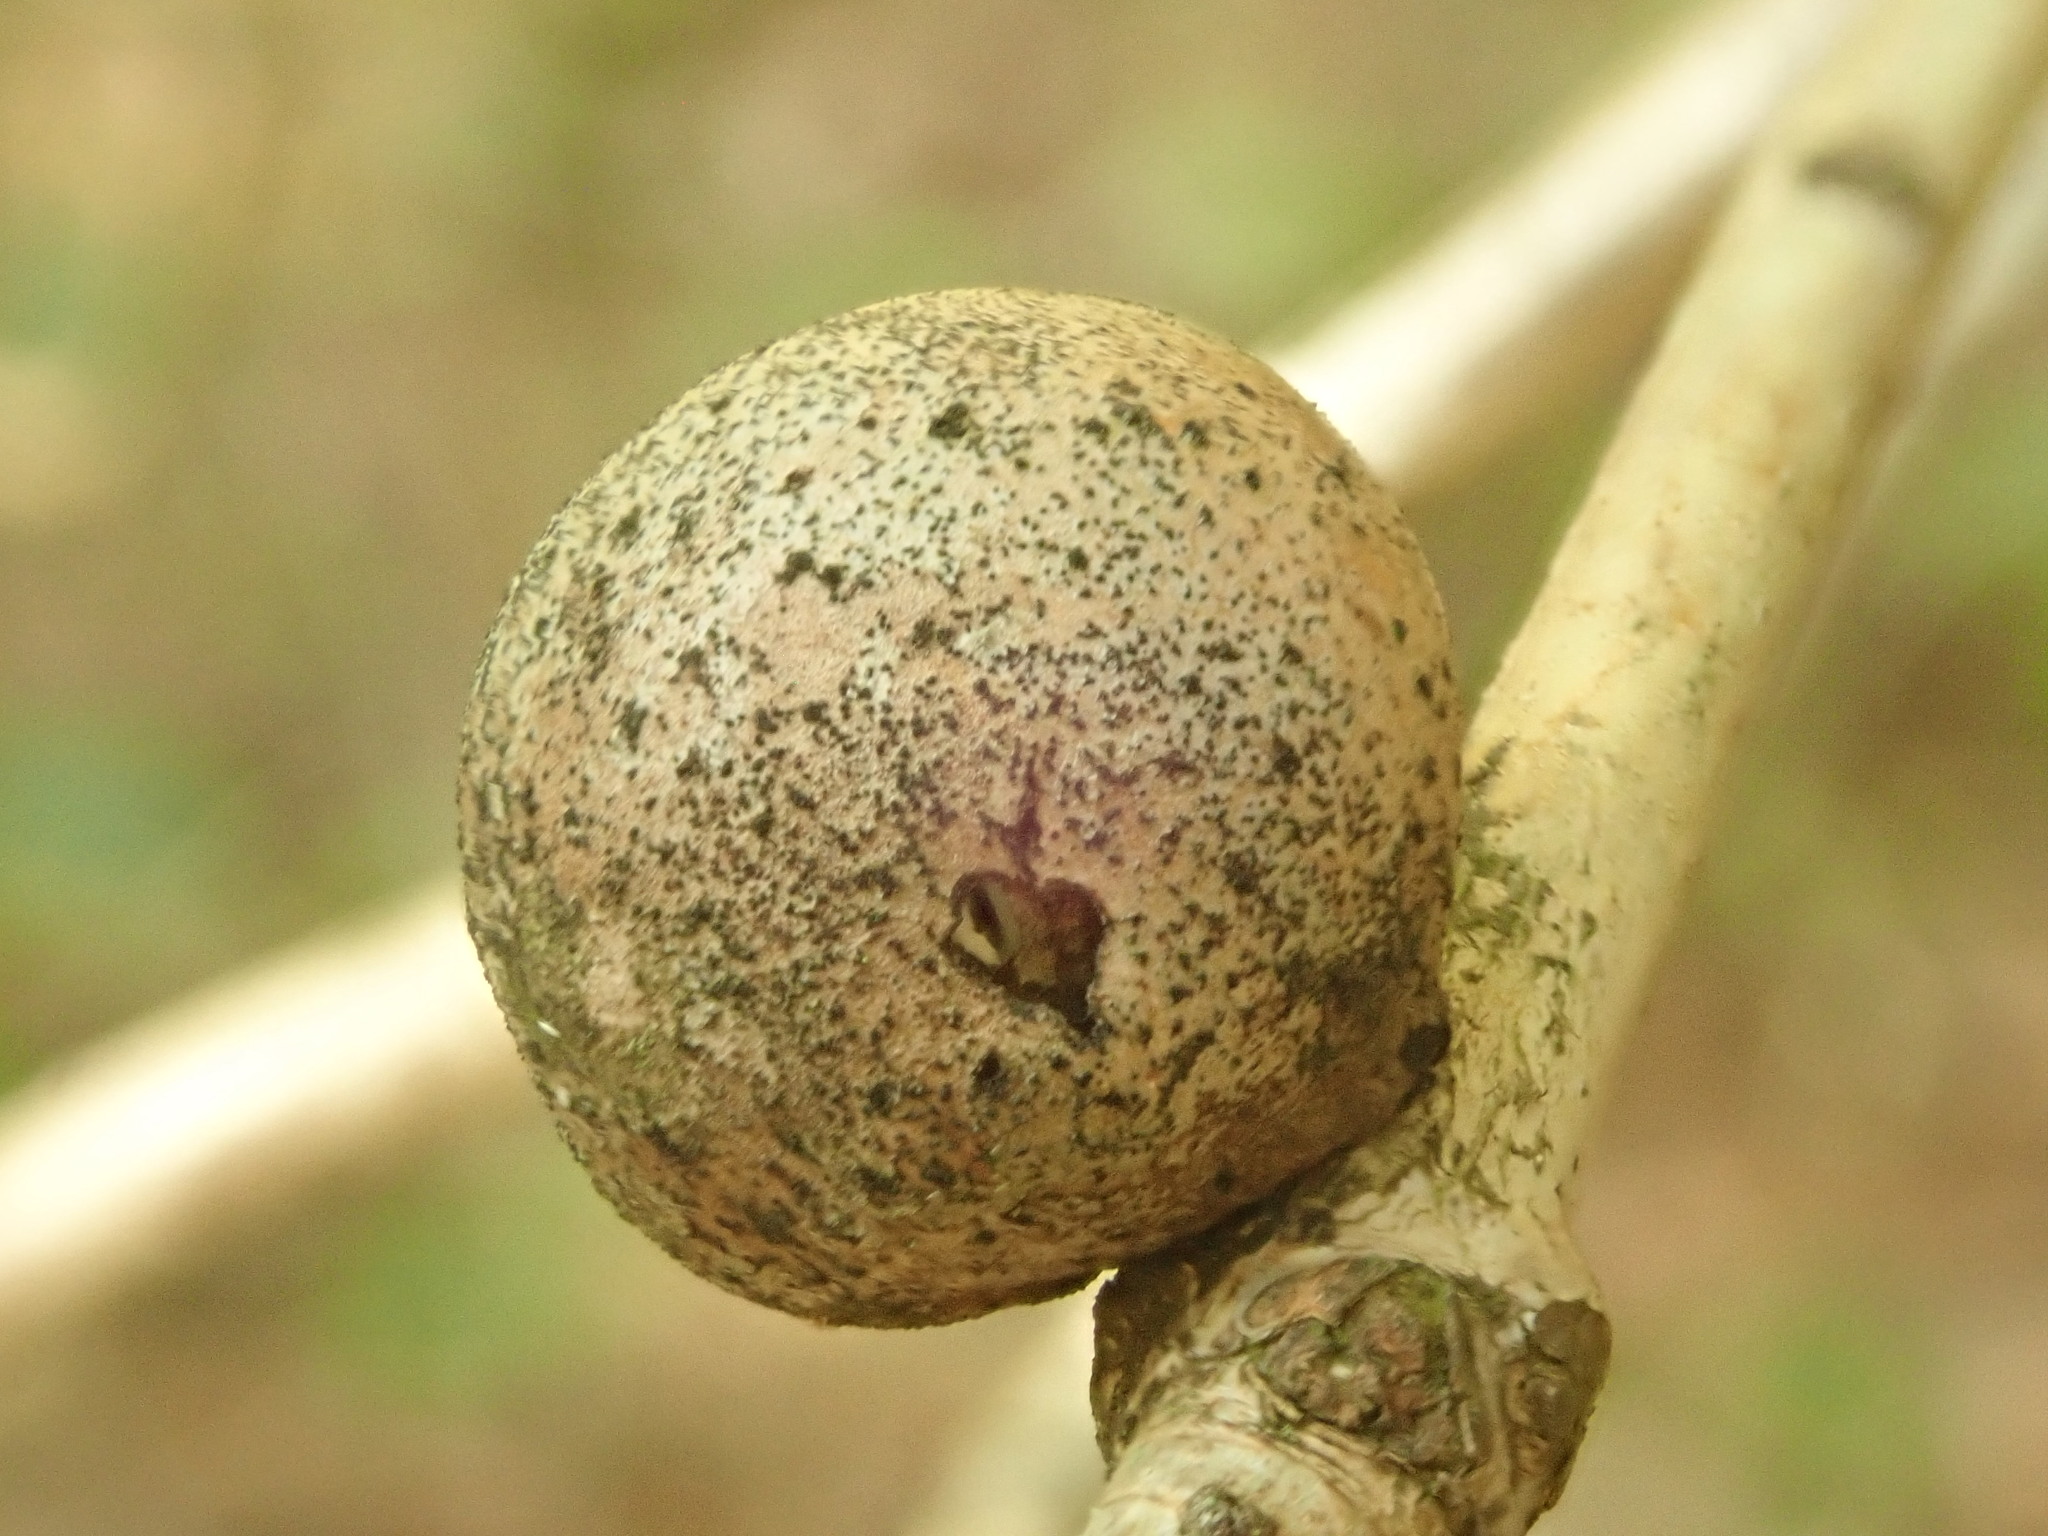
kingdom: Animalia
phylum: Arthropoda
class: Insecta
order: Hymenoptera
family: Cynipidae
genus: Disholcaspis
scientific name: Disholcaspis quercusglobulus
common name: Round bullet gall wasp
